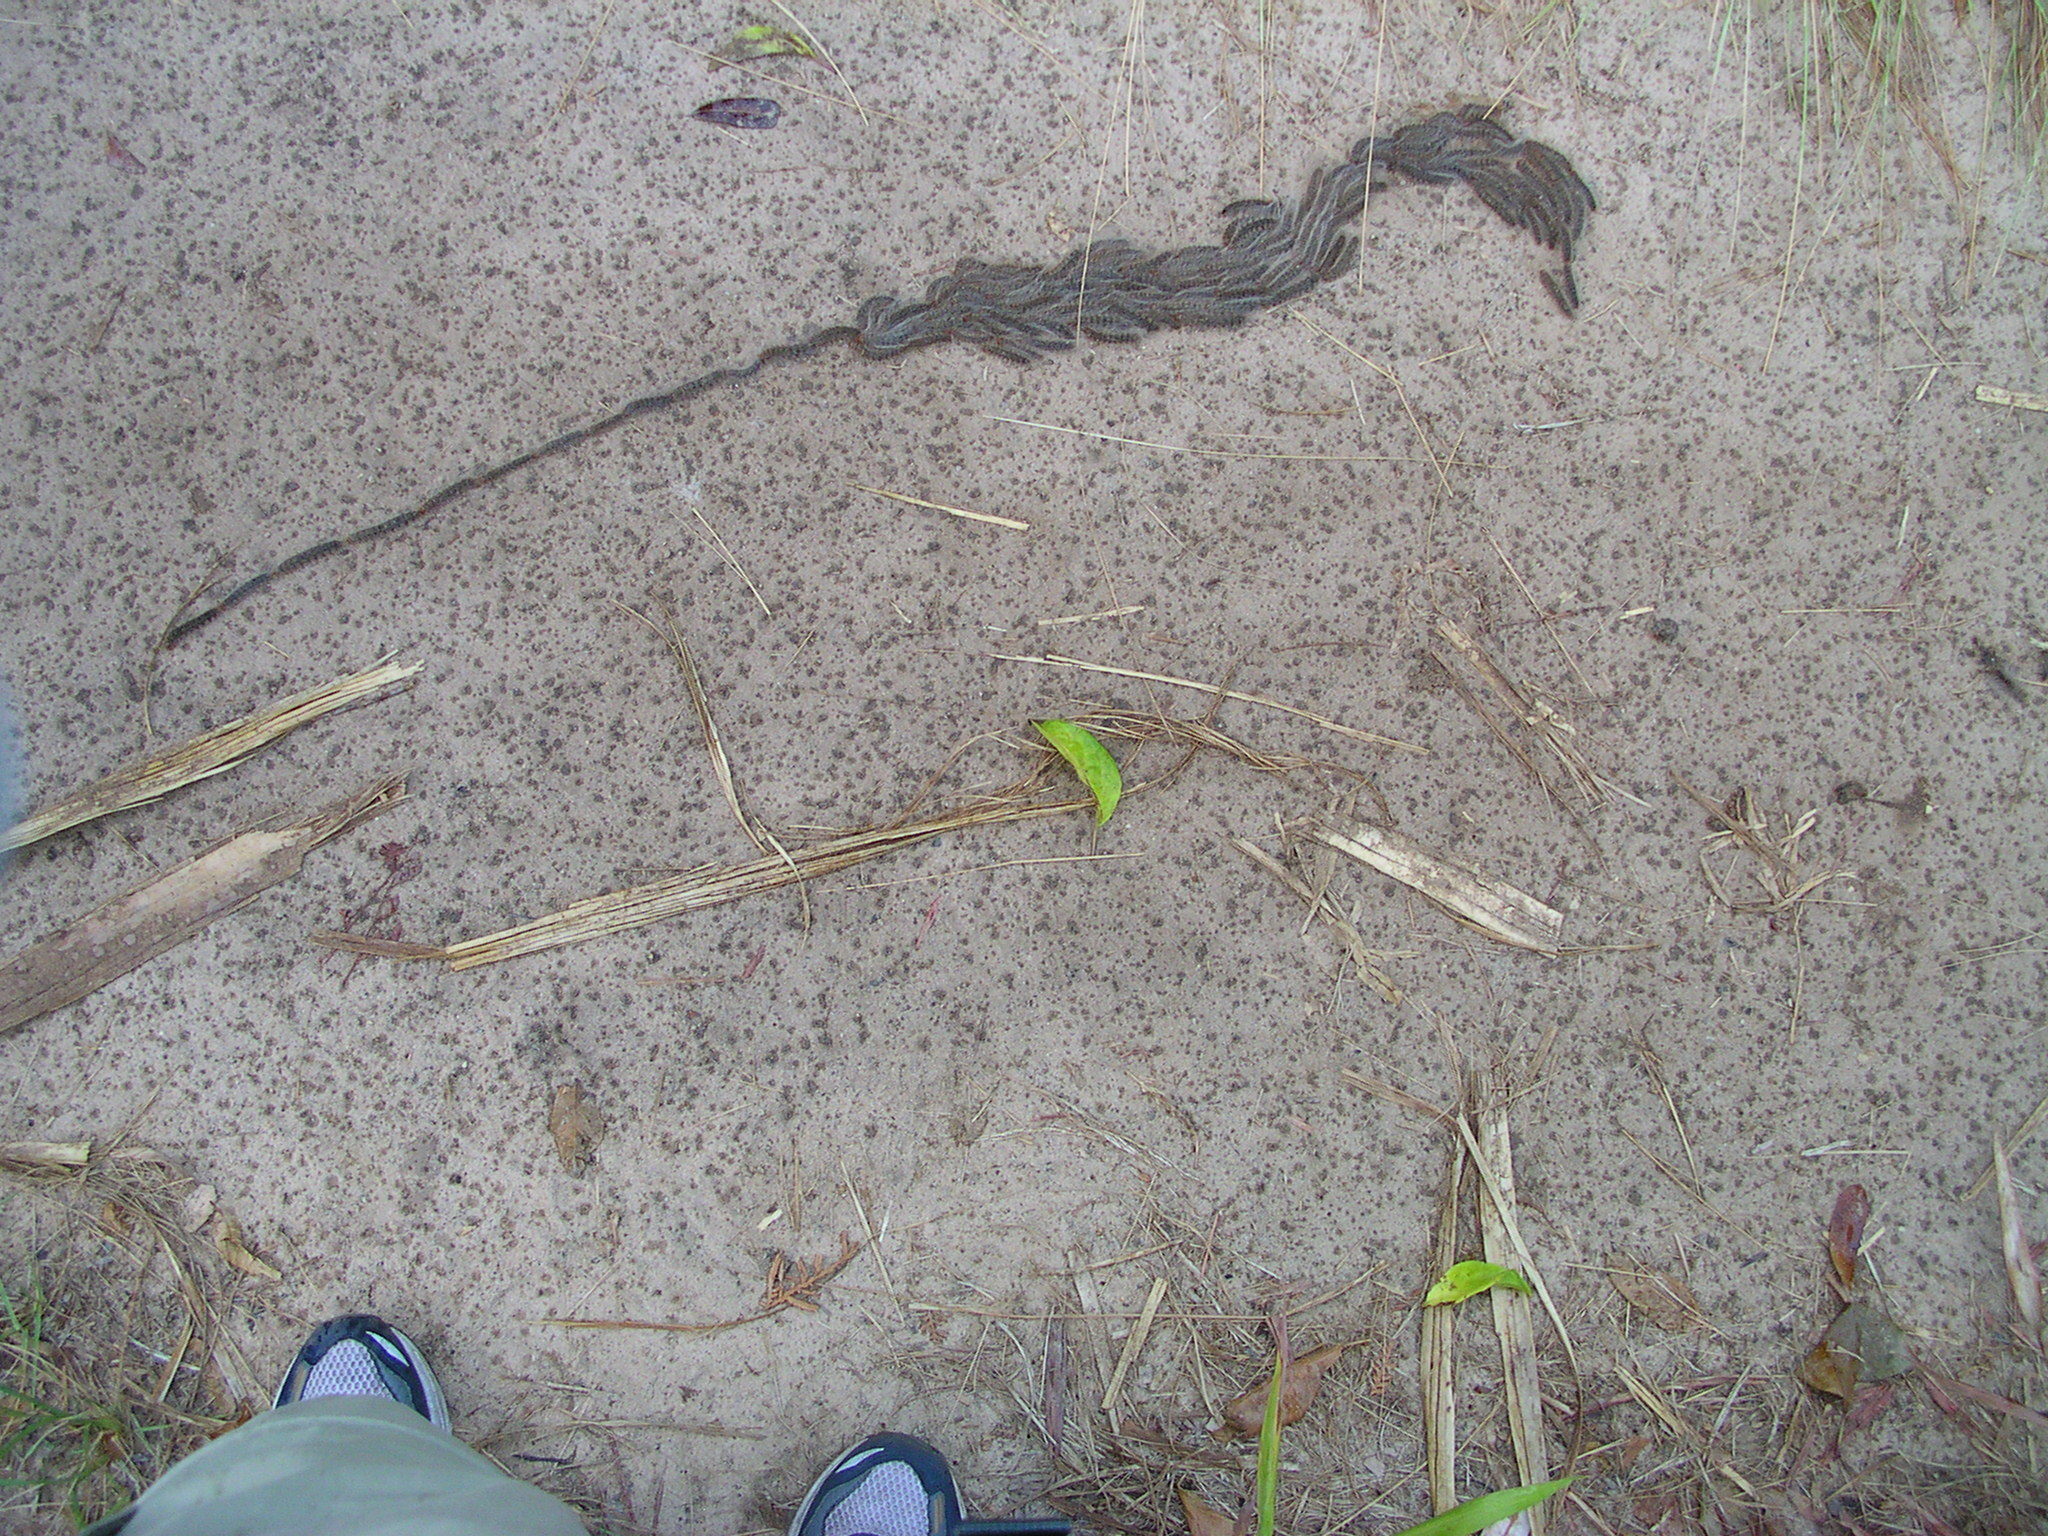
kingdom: Animalia
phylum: Arthropoda
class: Insecta
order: Lepidoptera
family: Notodontidae
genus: Ochrogaster
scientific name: Ochrogaster lunifer
